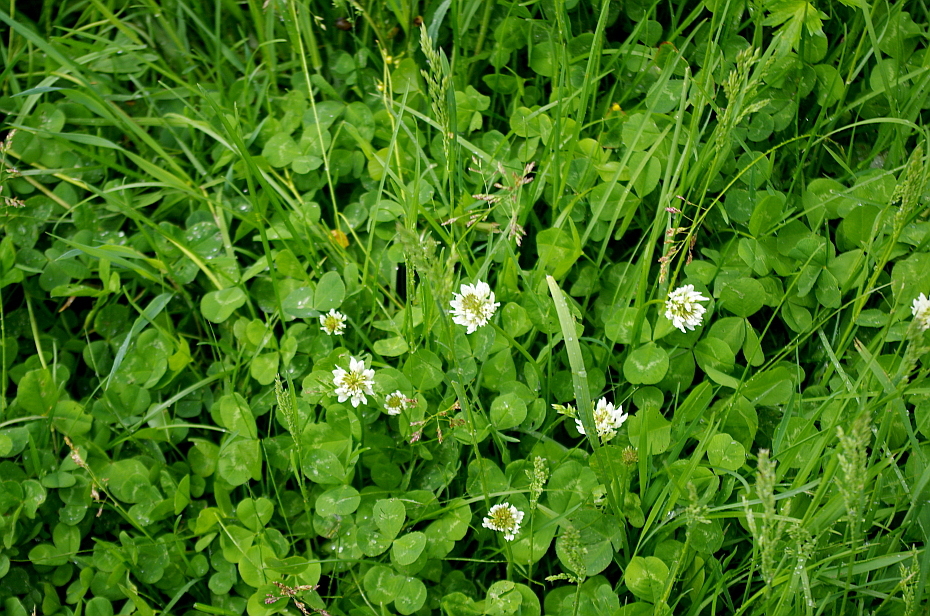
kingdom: Plantae
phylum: Tracheophyta
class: Magnoliopsida
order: Fabales
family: Fabaceae
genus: Trifolium
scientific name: Trifolium repens
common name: White clover
